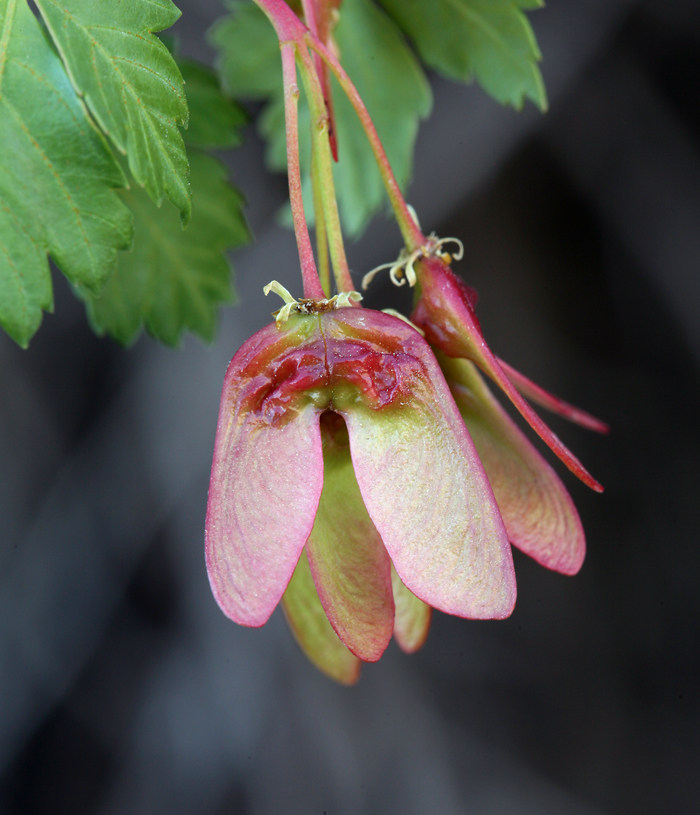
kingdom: Plantae
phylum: Tracheophyta
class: Magnoliopsida
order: Sapindales
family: Sapindaceae
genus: Acer
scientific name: Acer glabrum
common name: Rocky mountain maple
